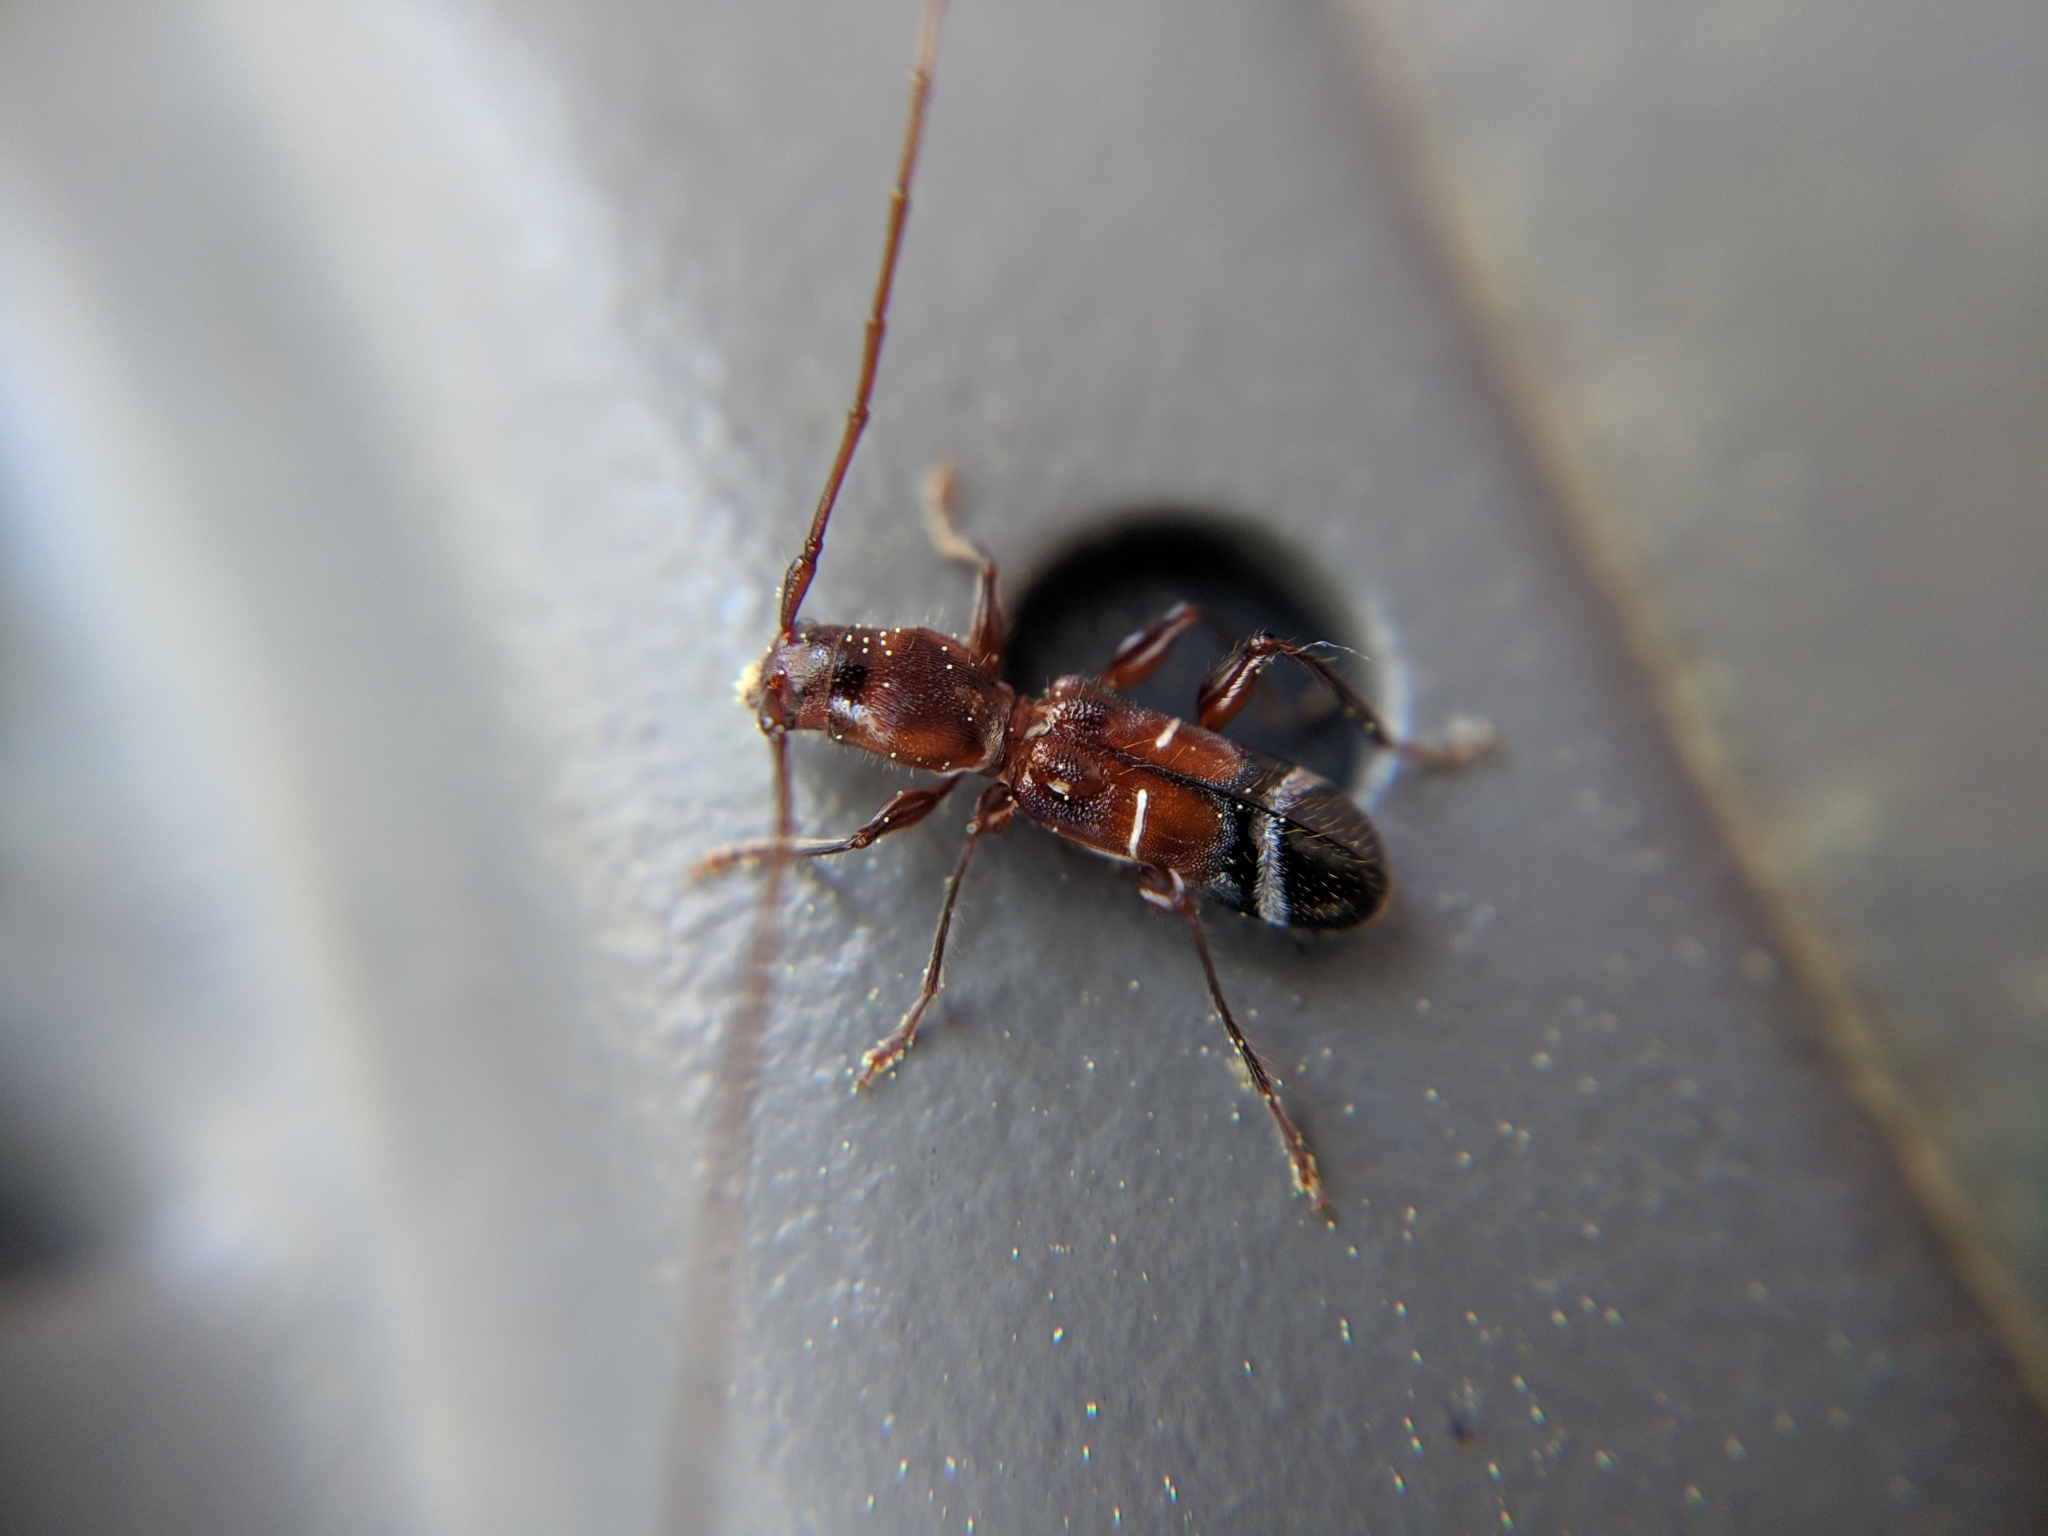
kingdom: Animalia
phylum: Arthropoda
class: Insecta
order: Coleoptera
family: Cerambycidae
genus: Euderces
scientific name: Euderces pini
